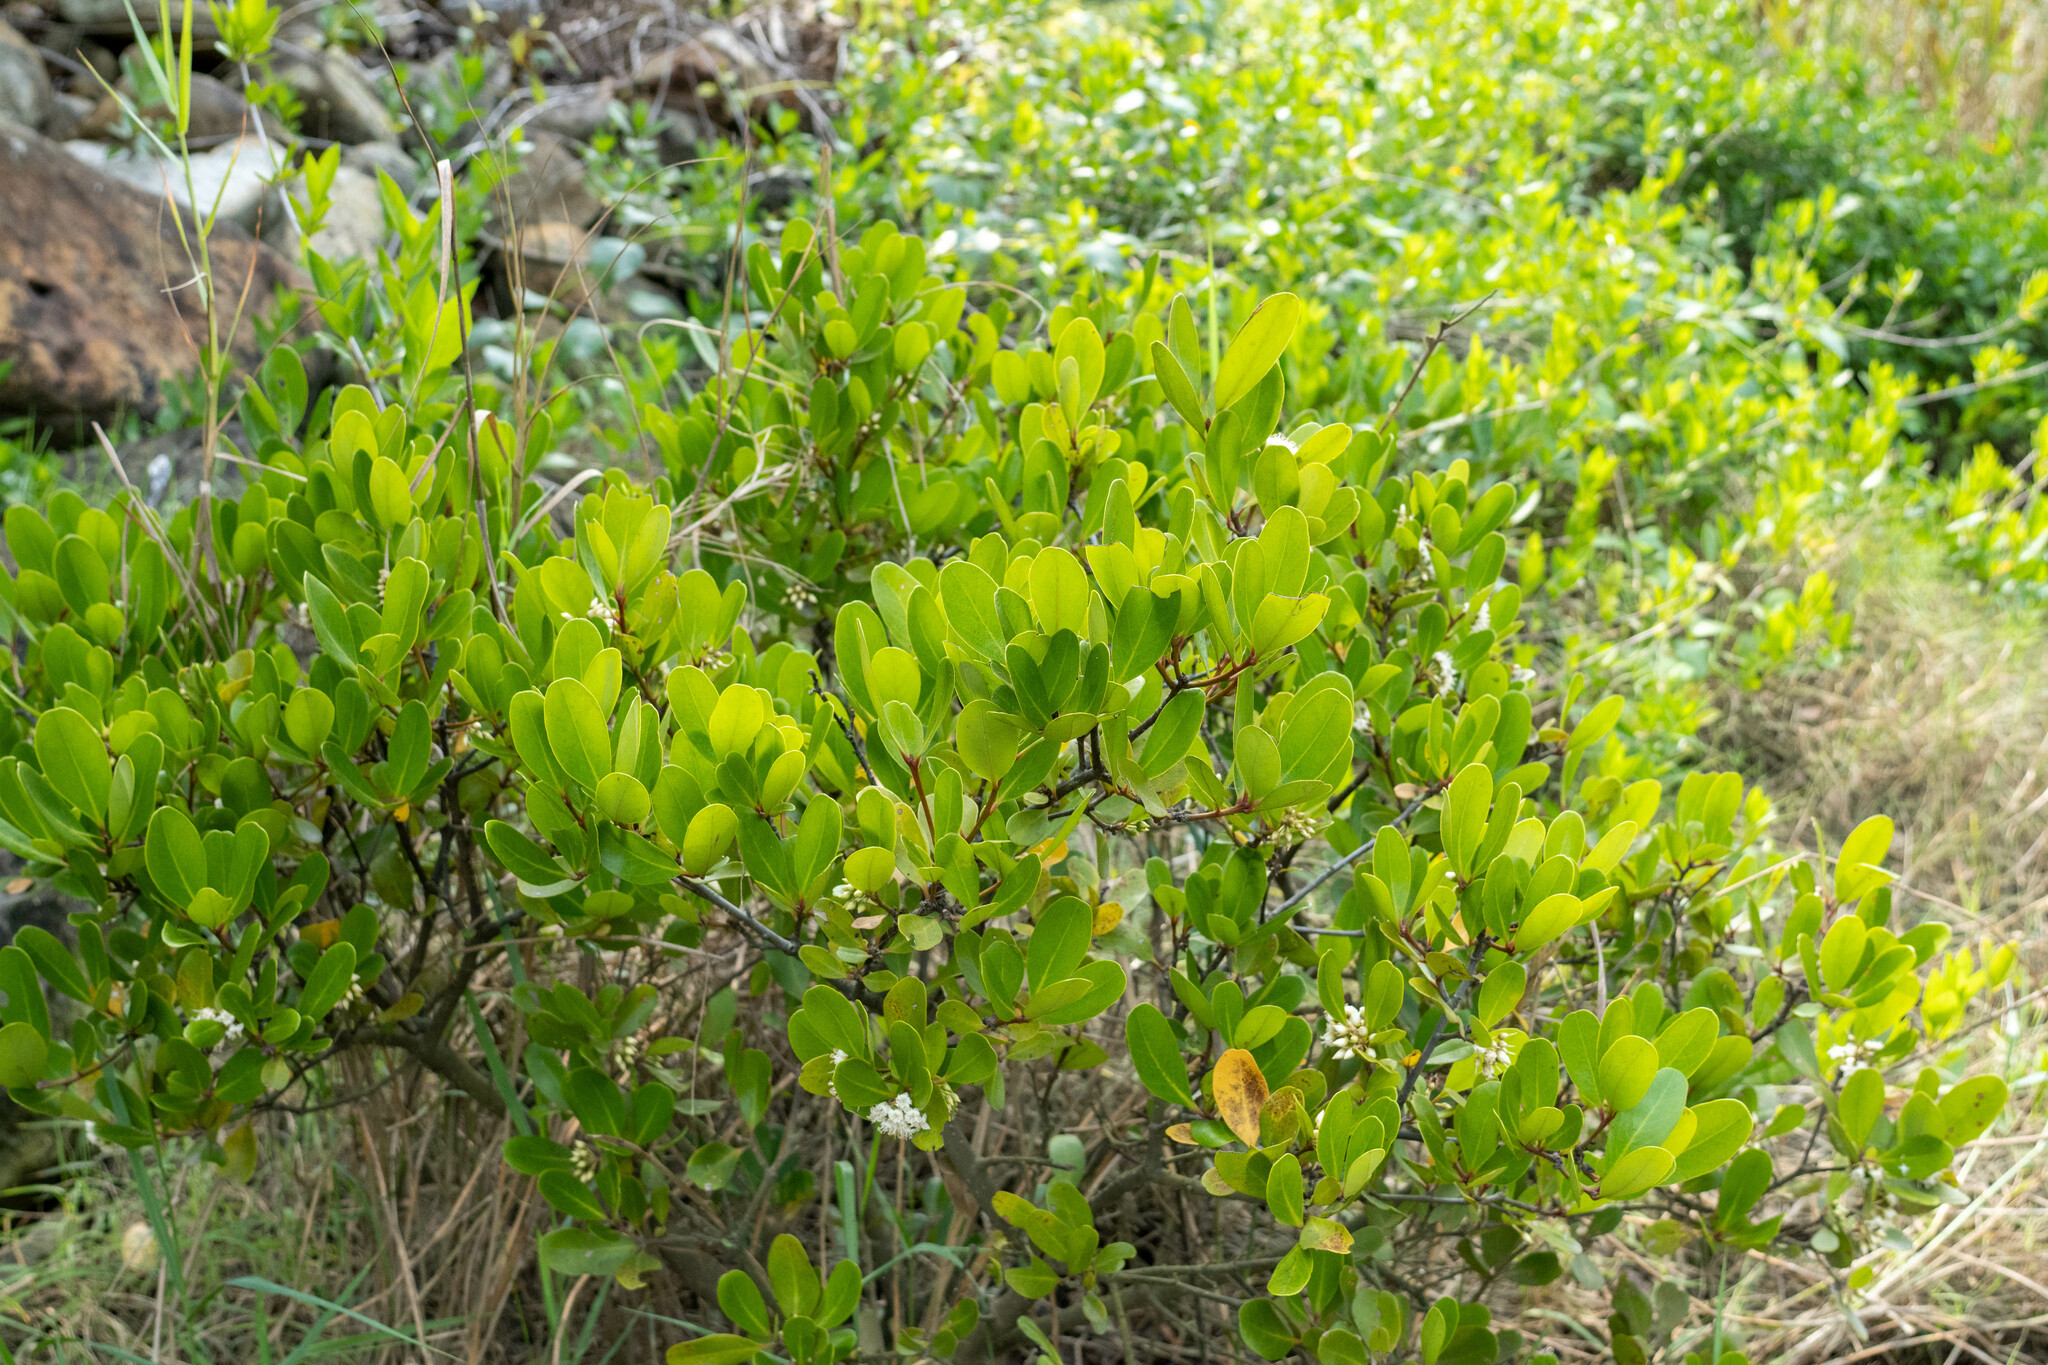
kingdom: Plantae
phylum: Tracheophyta
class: Magnoliopsida
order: Ericales
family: Primulaceae
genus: Aegiceras
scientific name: Aegiceras corniculatum
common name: River mangrove
